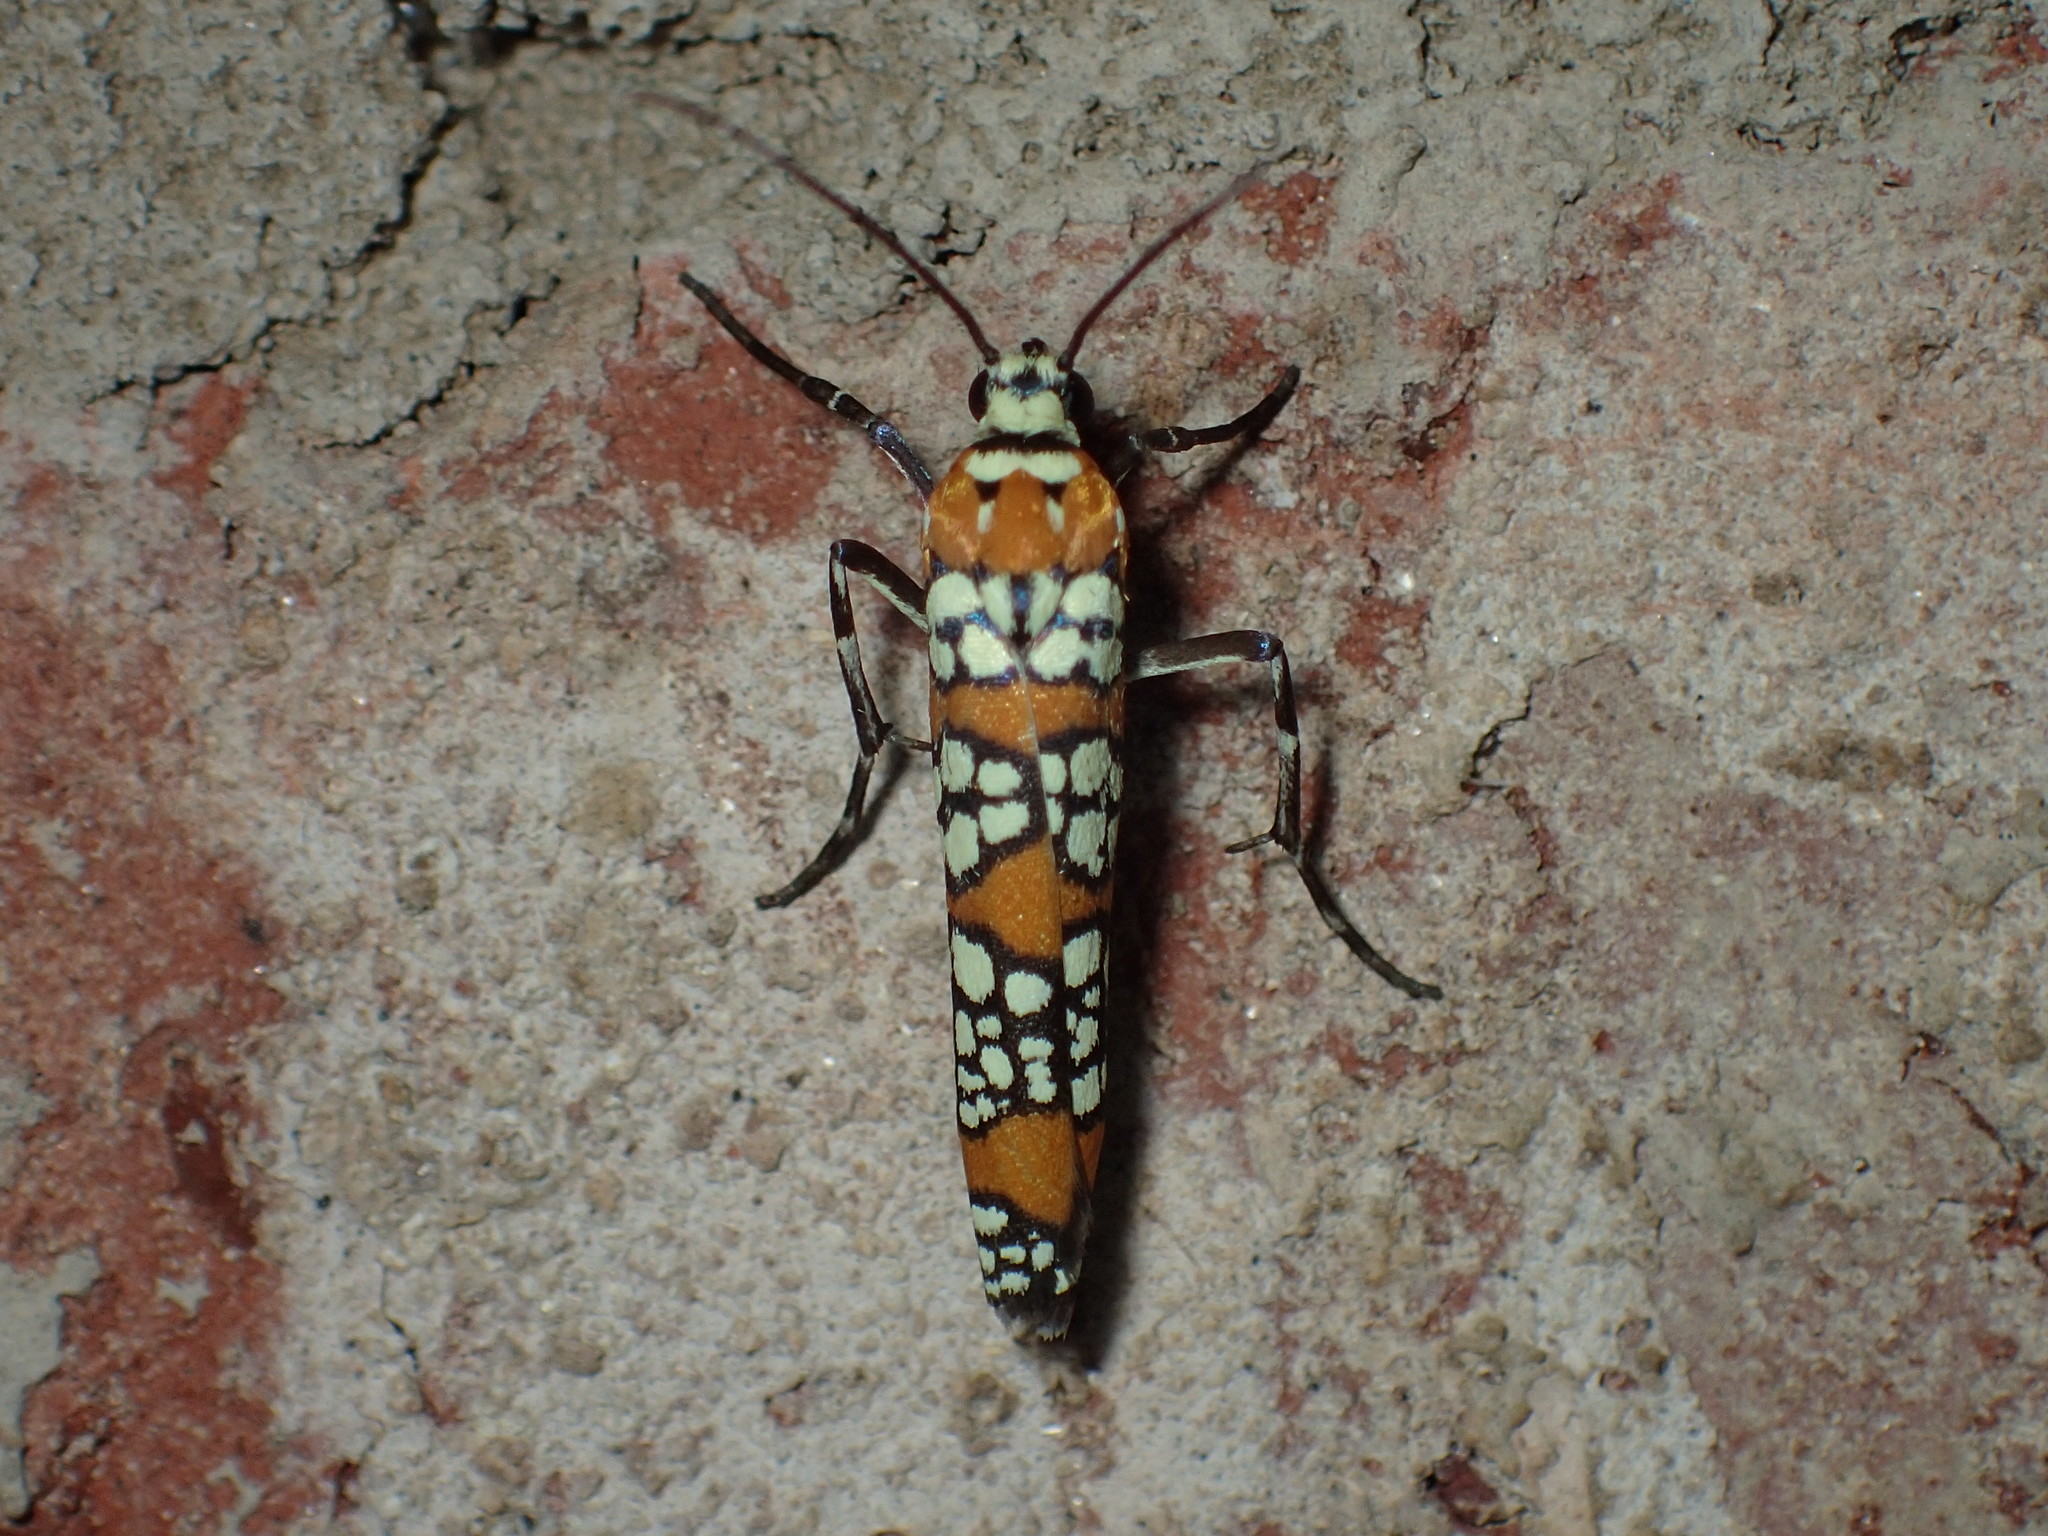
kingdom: Animalia
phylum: Arthropoda
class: Insecta
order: Lepidoptera
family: Attevidae
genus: Atteva
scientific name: Atteva punctella
